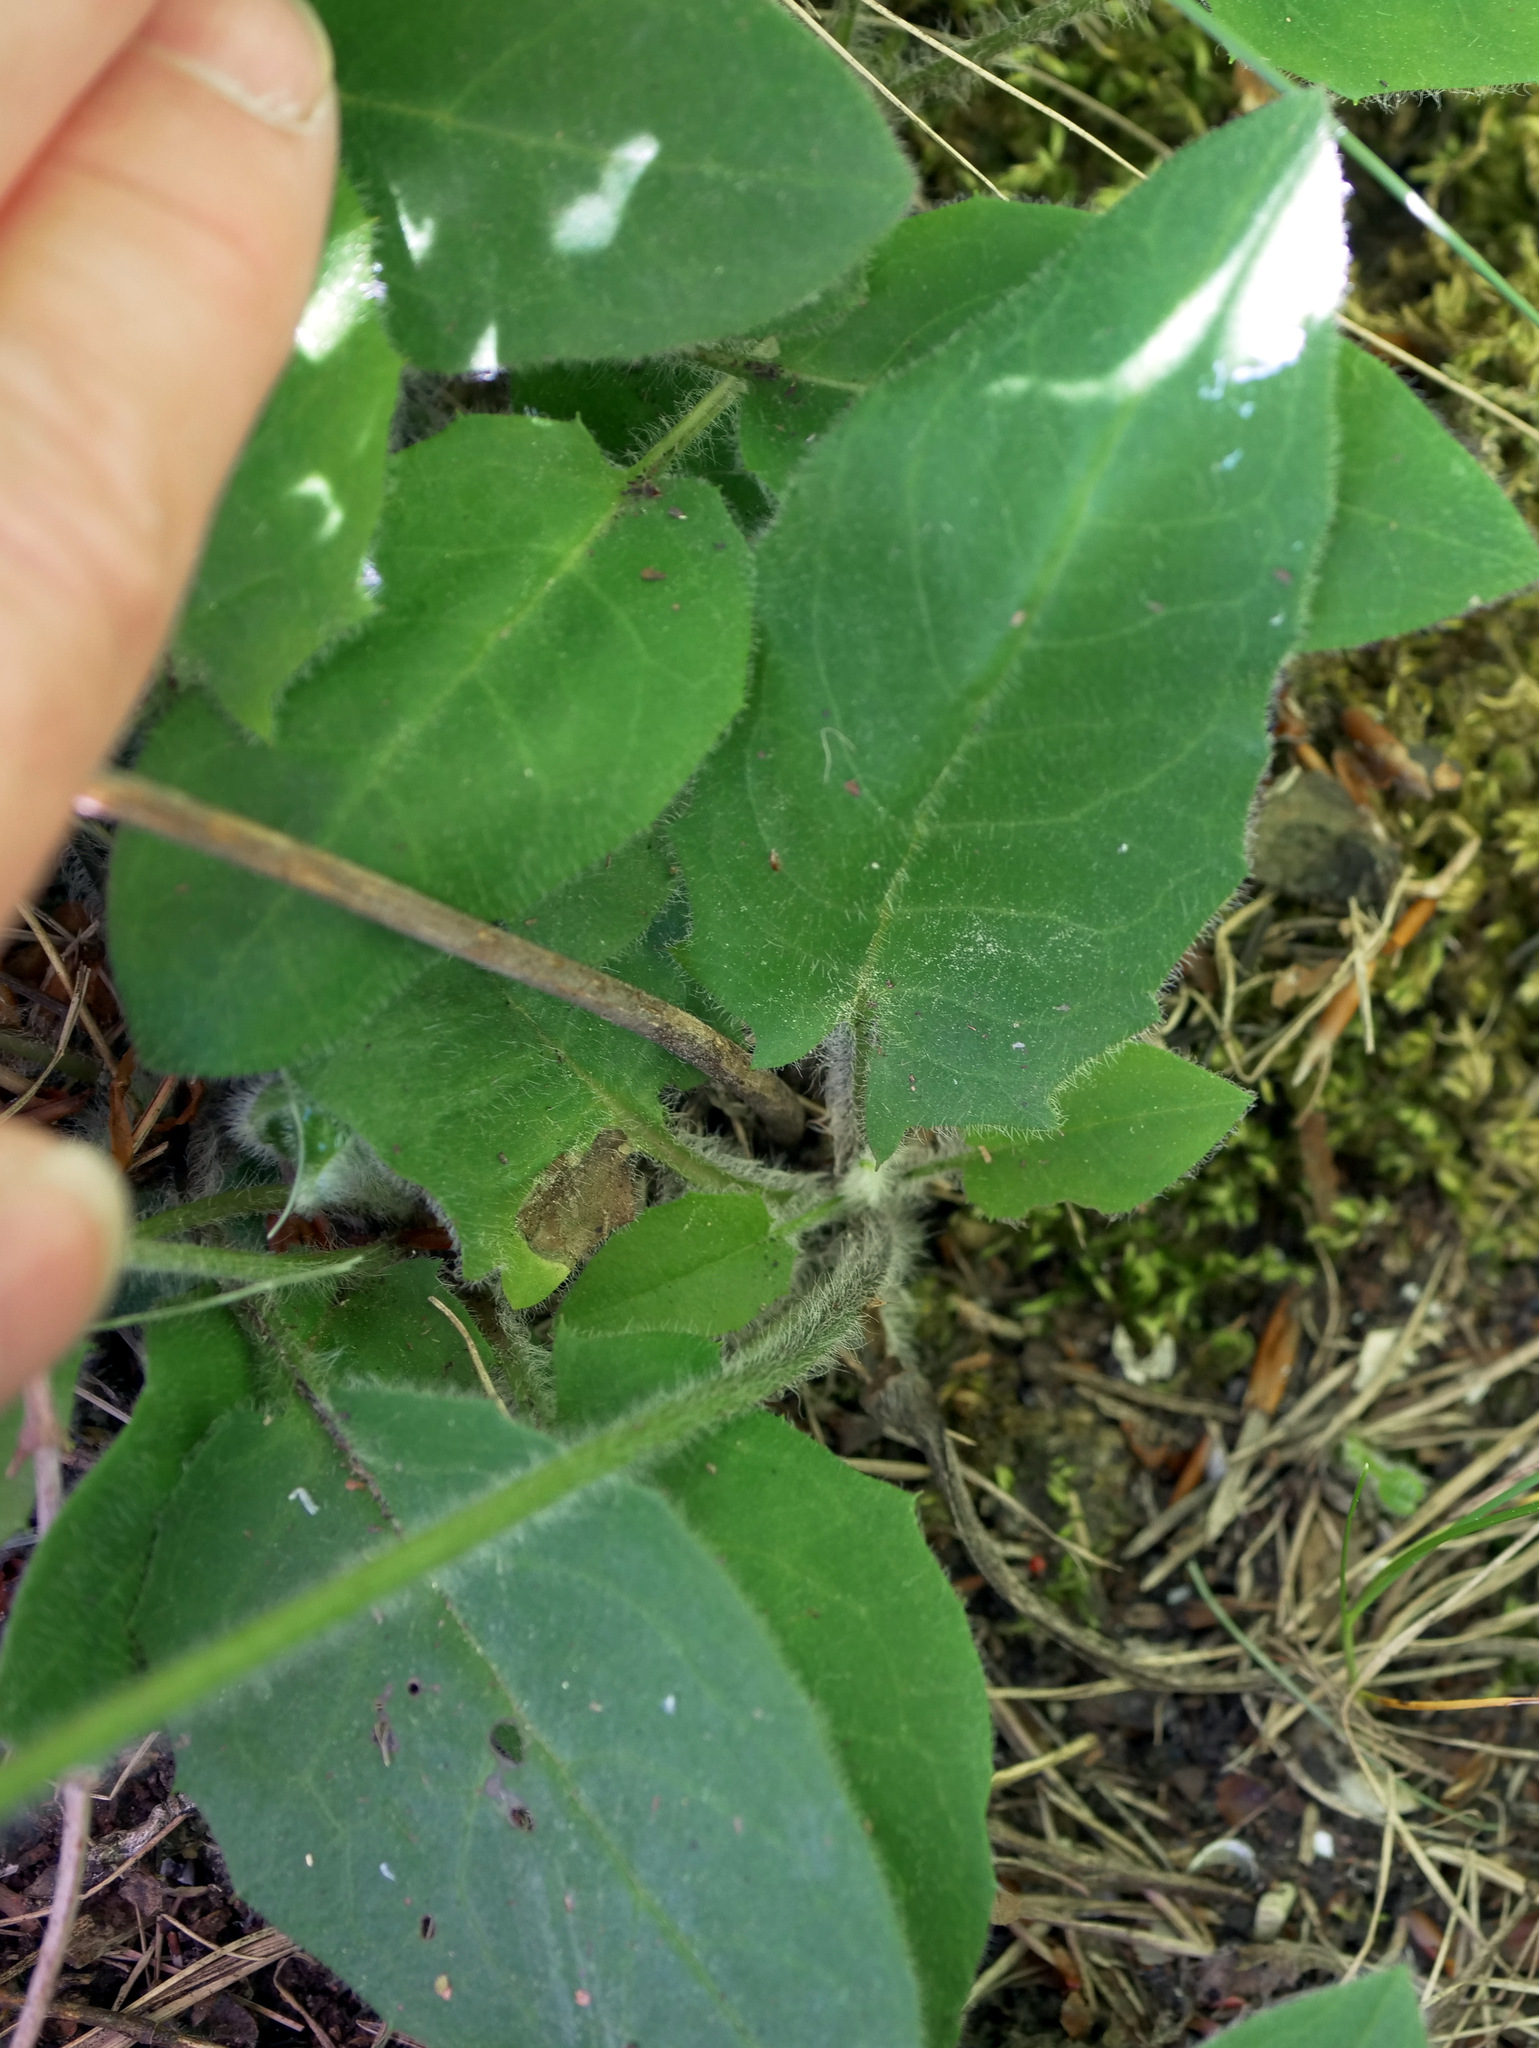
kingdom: Plantae
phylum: Tracheophyta
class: Magnoliopsida
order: Asterales
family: Asteraceae
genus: Hieracium
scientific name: Hieracium murorum
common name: Wall hawkweed
